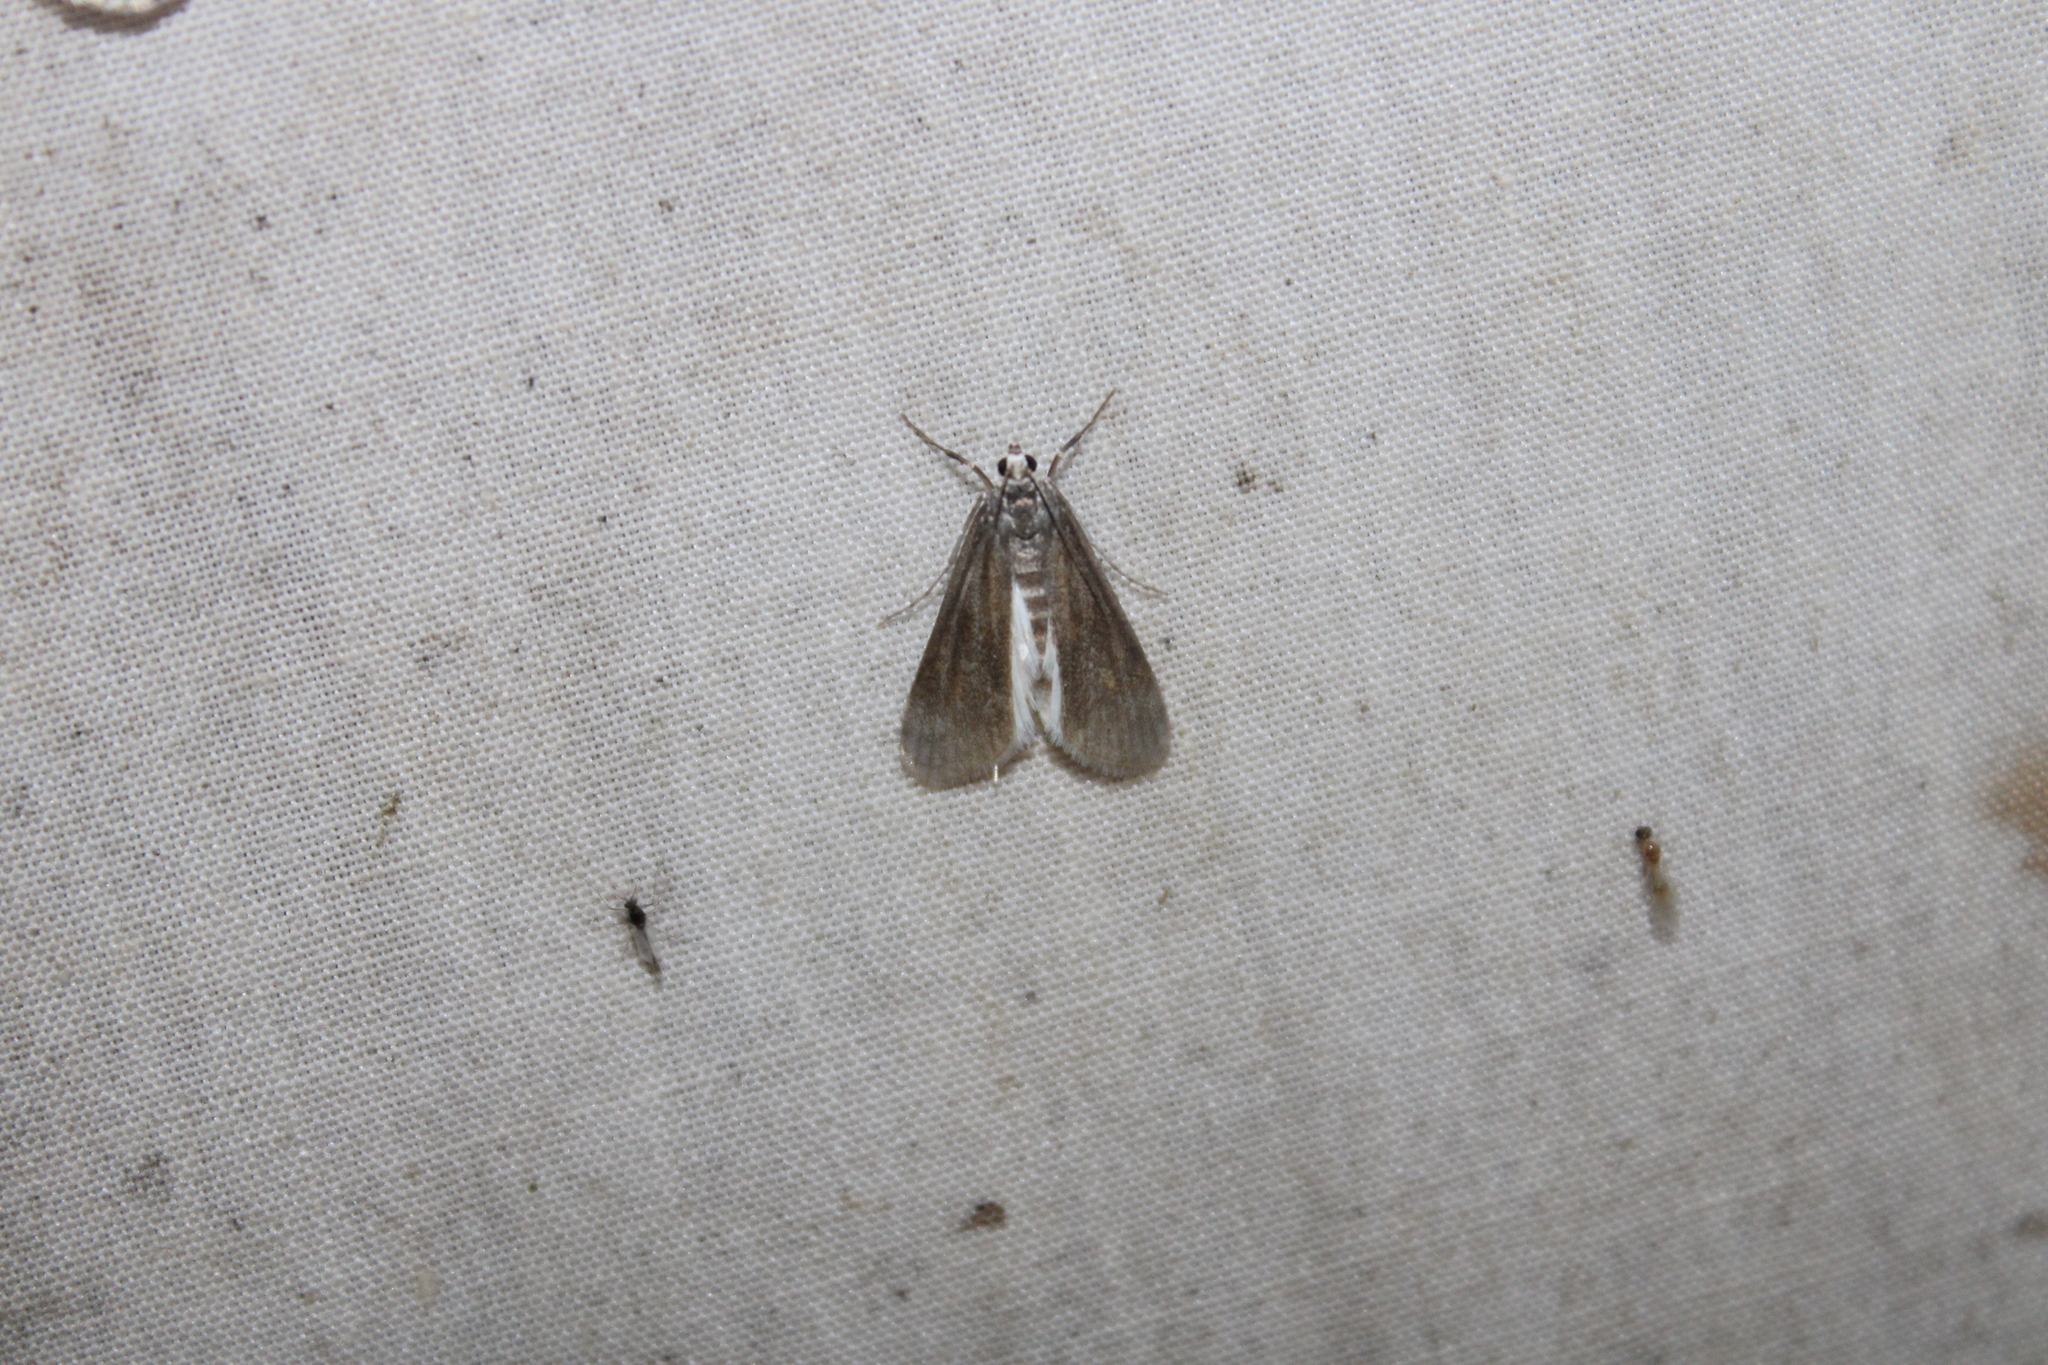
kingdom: Animalia
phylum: Arthropoda
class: Insecta
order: Lepidoptera
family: Crambidae
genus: Parapoynx
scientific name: Parapoynx maculalis
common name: Polymorphic pondweed moth
